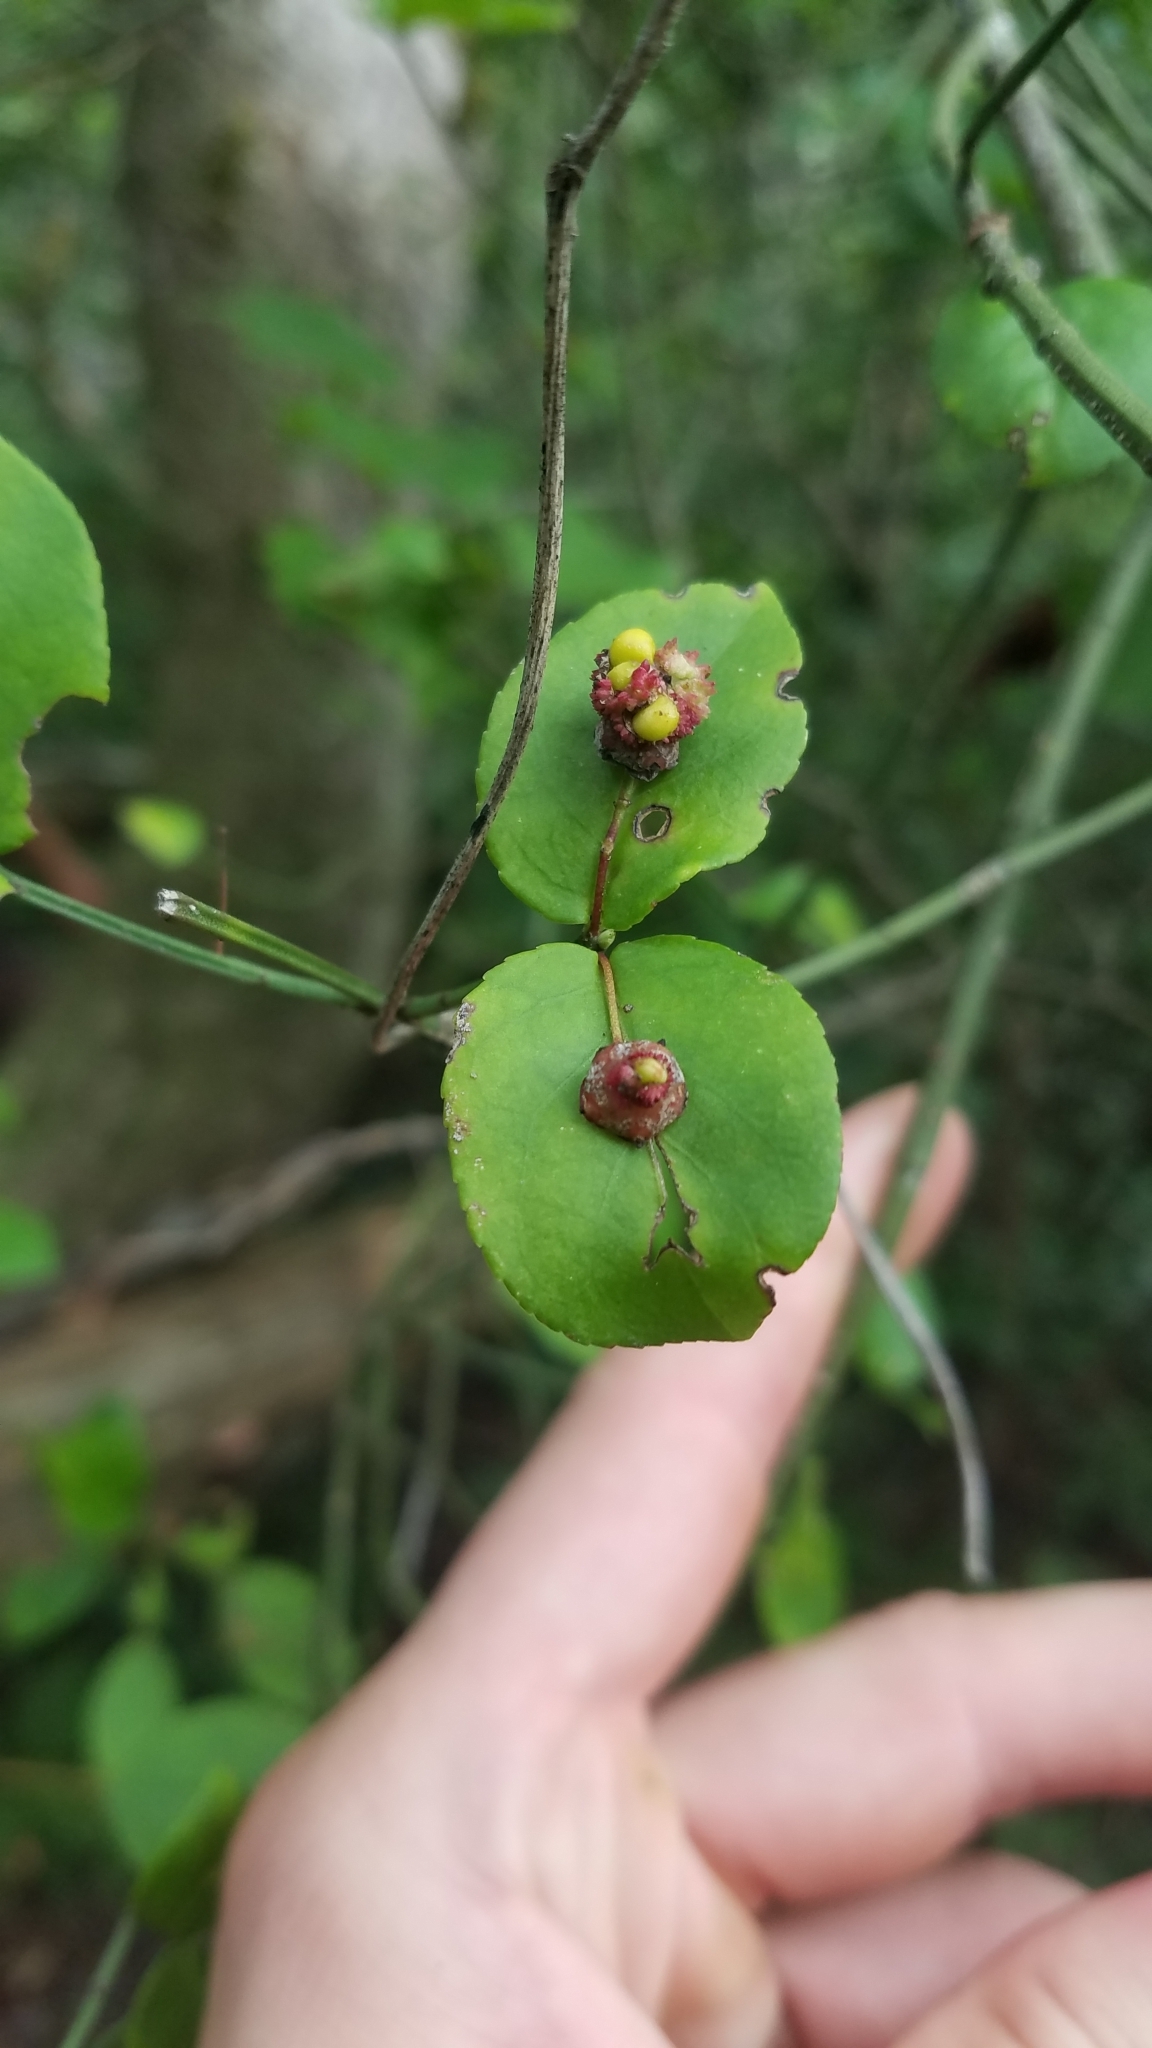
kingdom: Plantae
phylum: Tracheophyta
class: Magnoliopsida
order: Celastrales
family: Celastraceae
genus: Euonymus
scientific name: Euonymus americanus
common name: Bursting-heart
